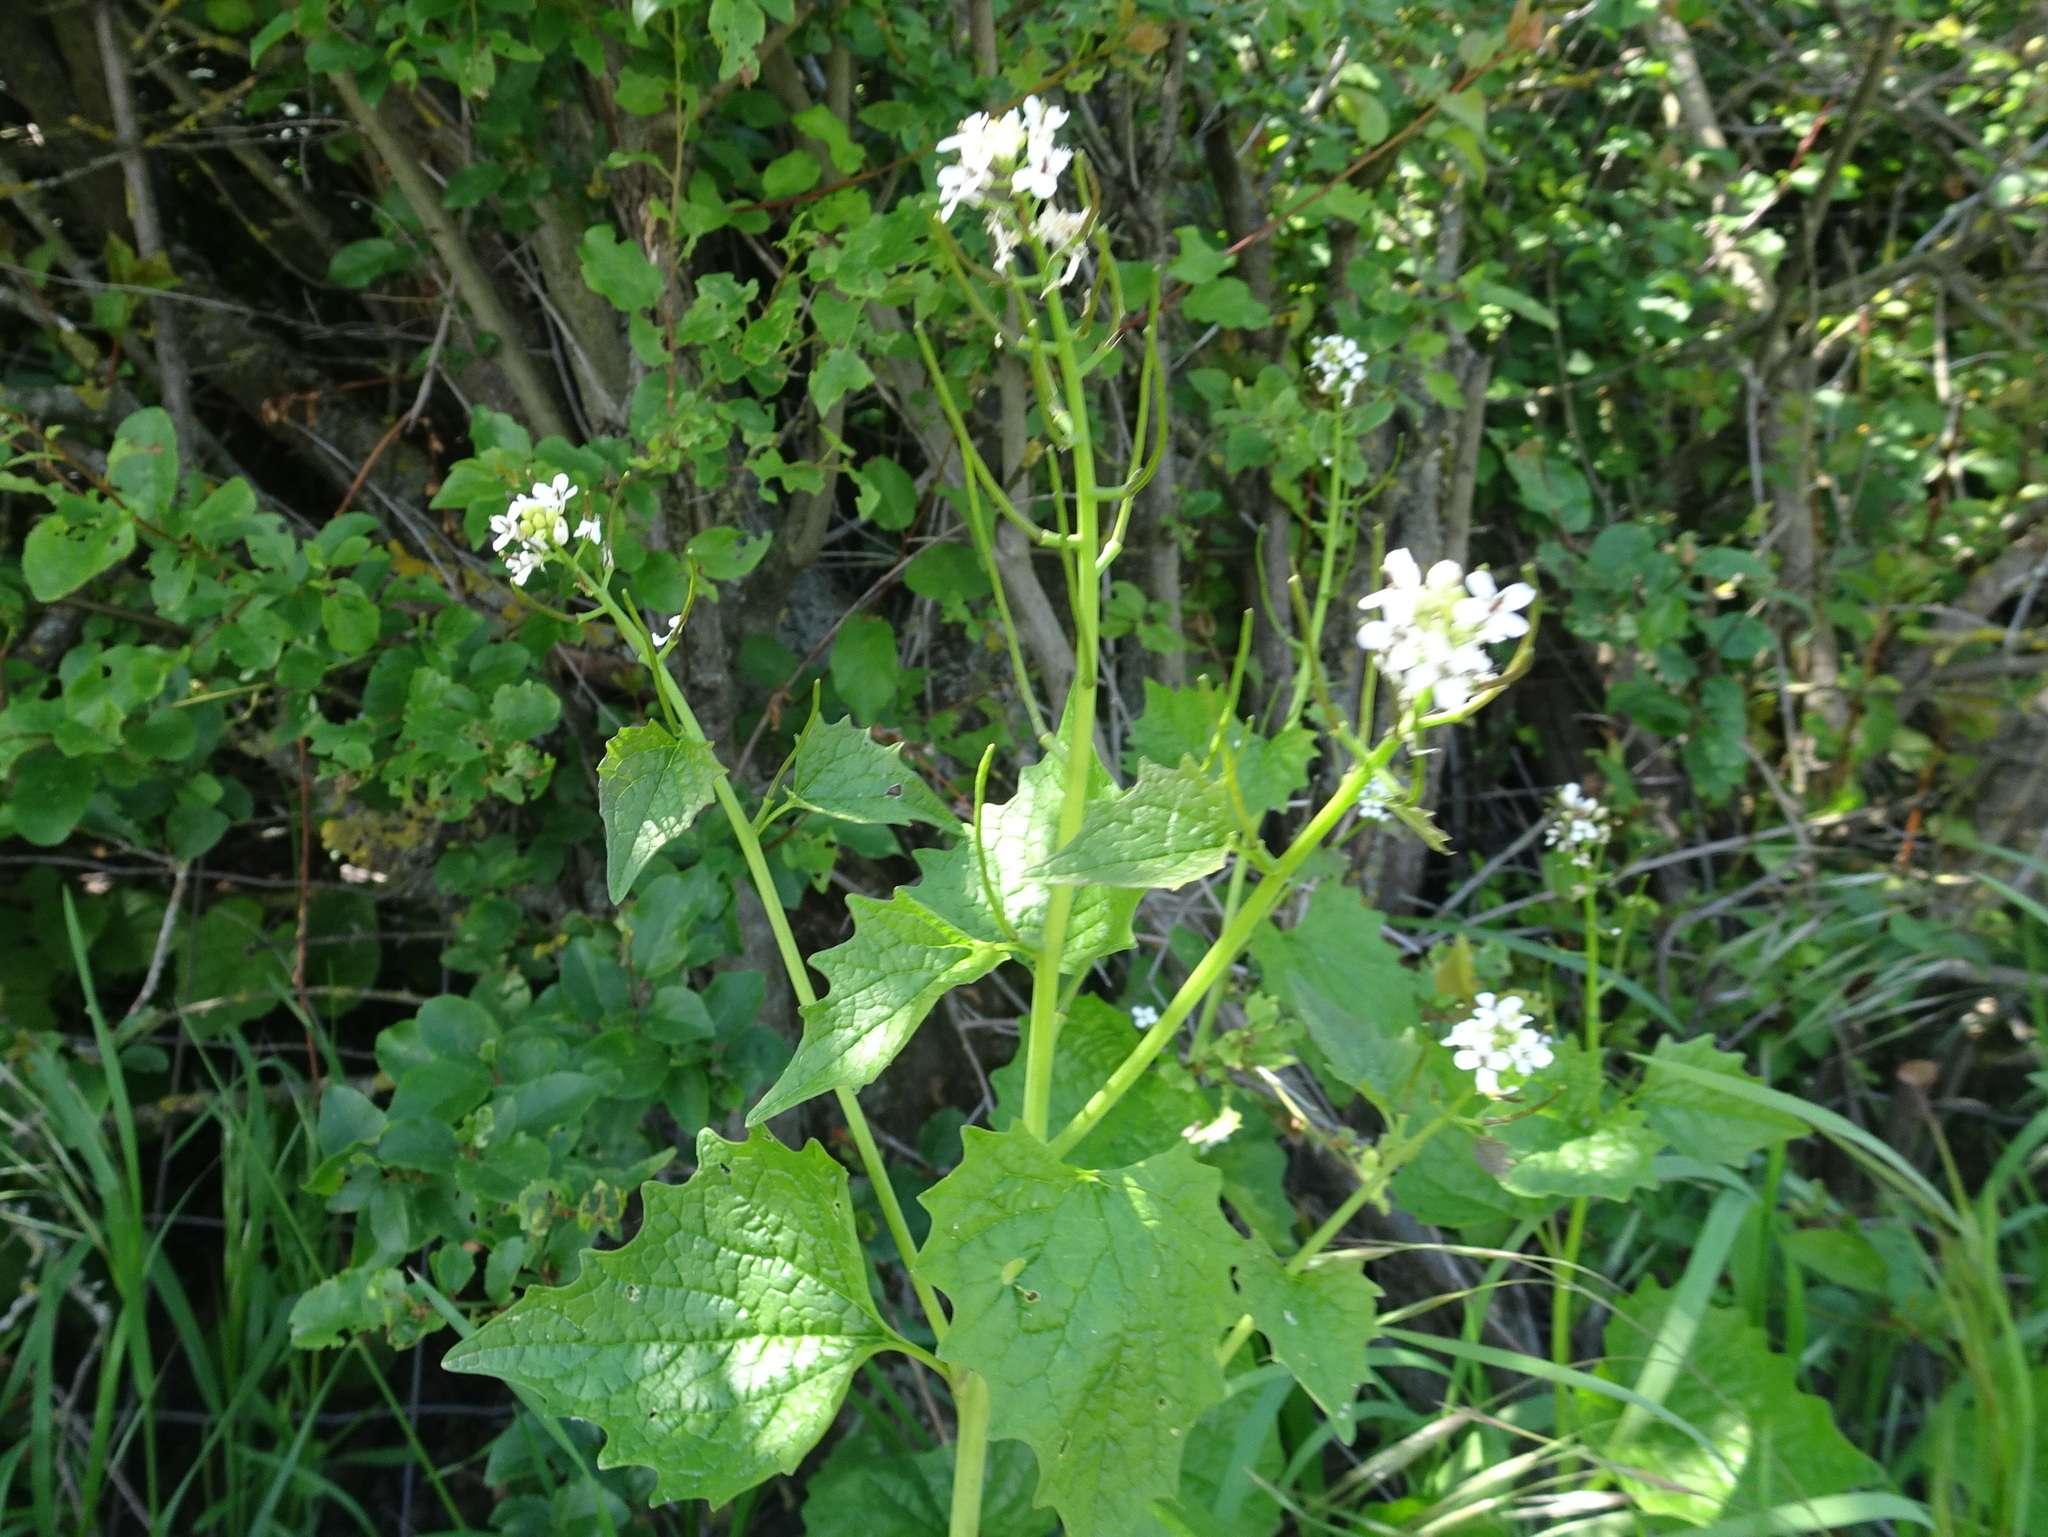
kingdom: Plantae
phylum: Tracheophyta
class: Magnoliopsida
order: Brassicales
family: Brassicaceae
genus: Alliaria
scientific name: Alliaria petiolata
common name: Garlic mustard
